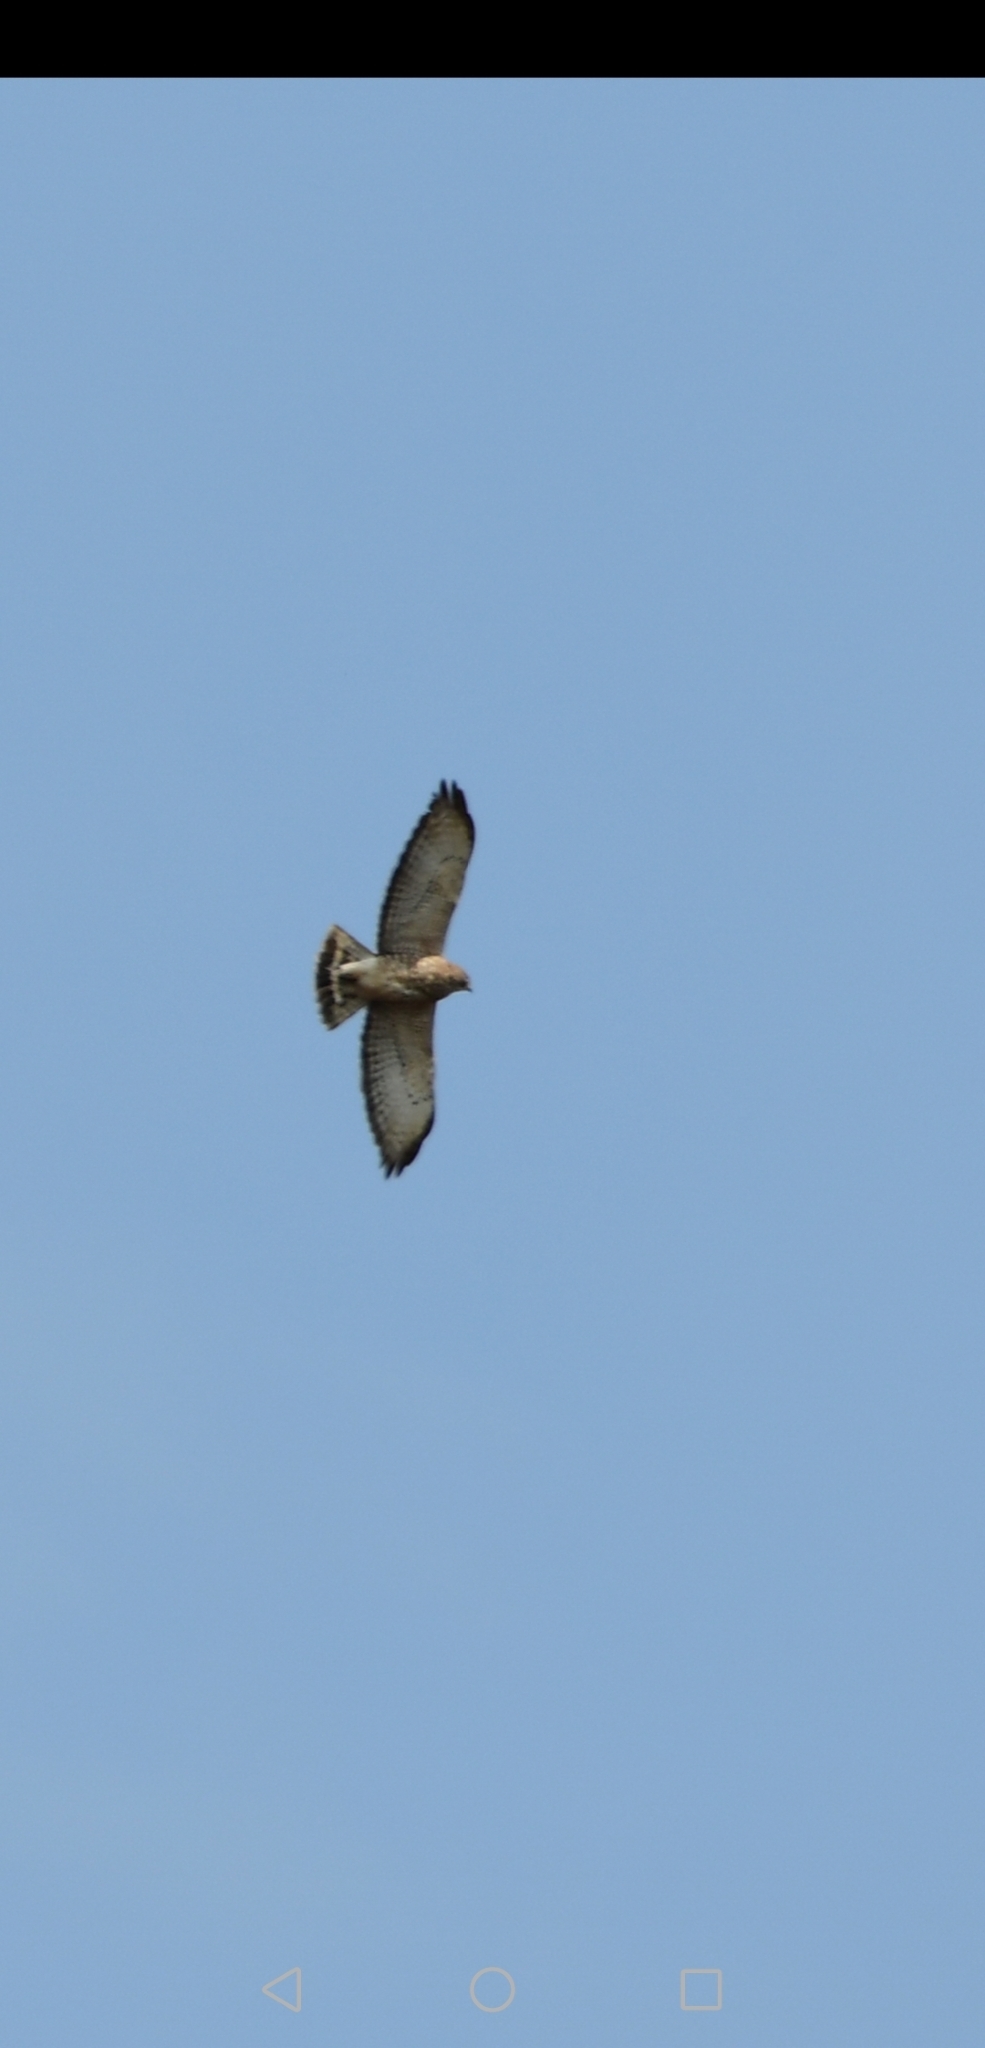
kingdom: Animalia
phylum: Chordata
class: Aves
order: Accipitriformes
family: Accipitridae
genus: Buteo
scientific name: Buteo platypterus
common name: Broad-winged hawk
